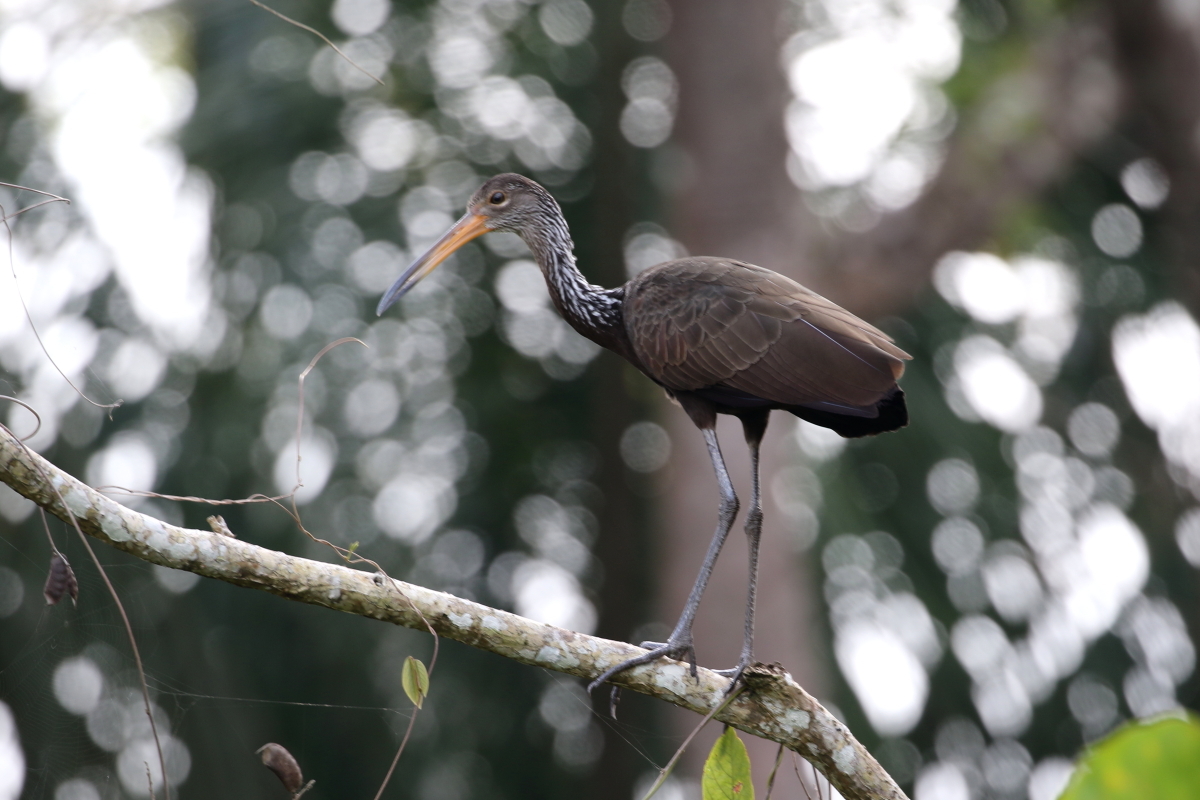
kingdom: Animalia
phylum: Chordata
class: Aves
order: Gruiformes
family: Aramidae
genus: Aramus
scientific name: Aramus guarauna
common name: Limpkin
